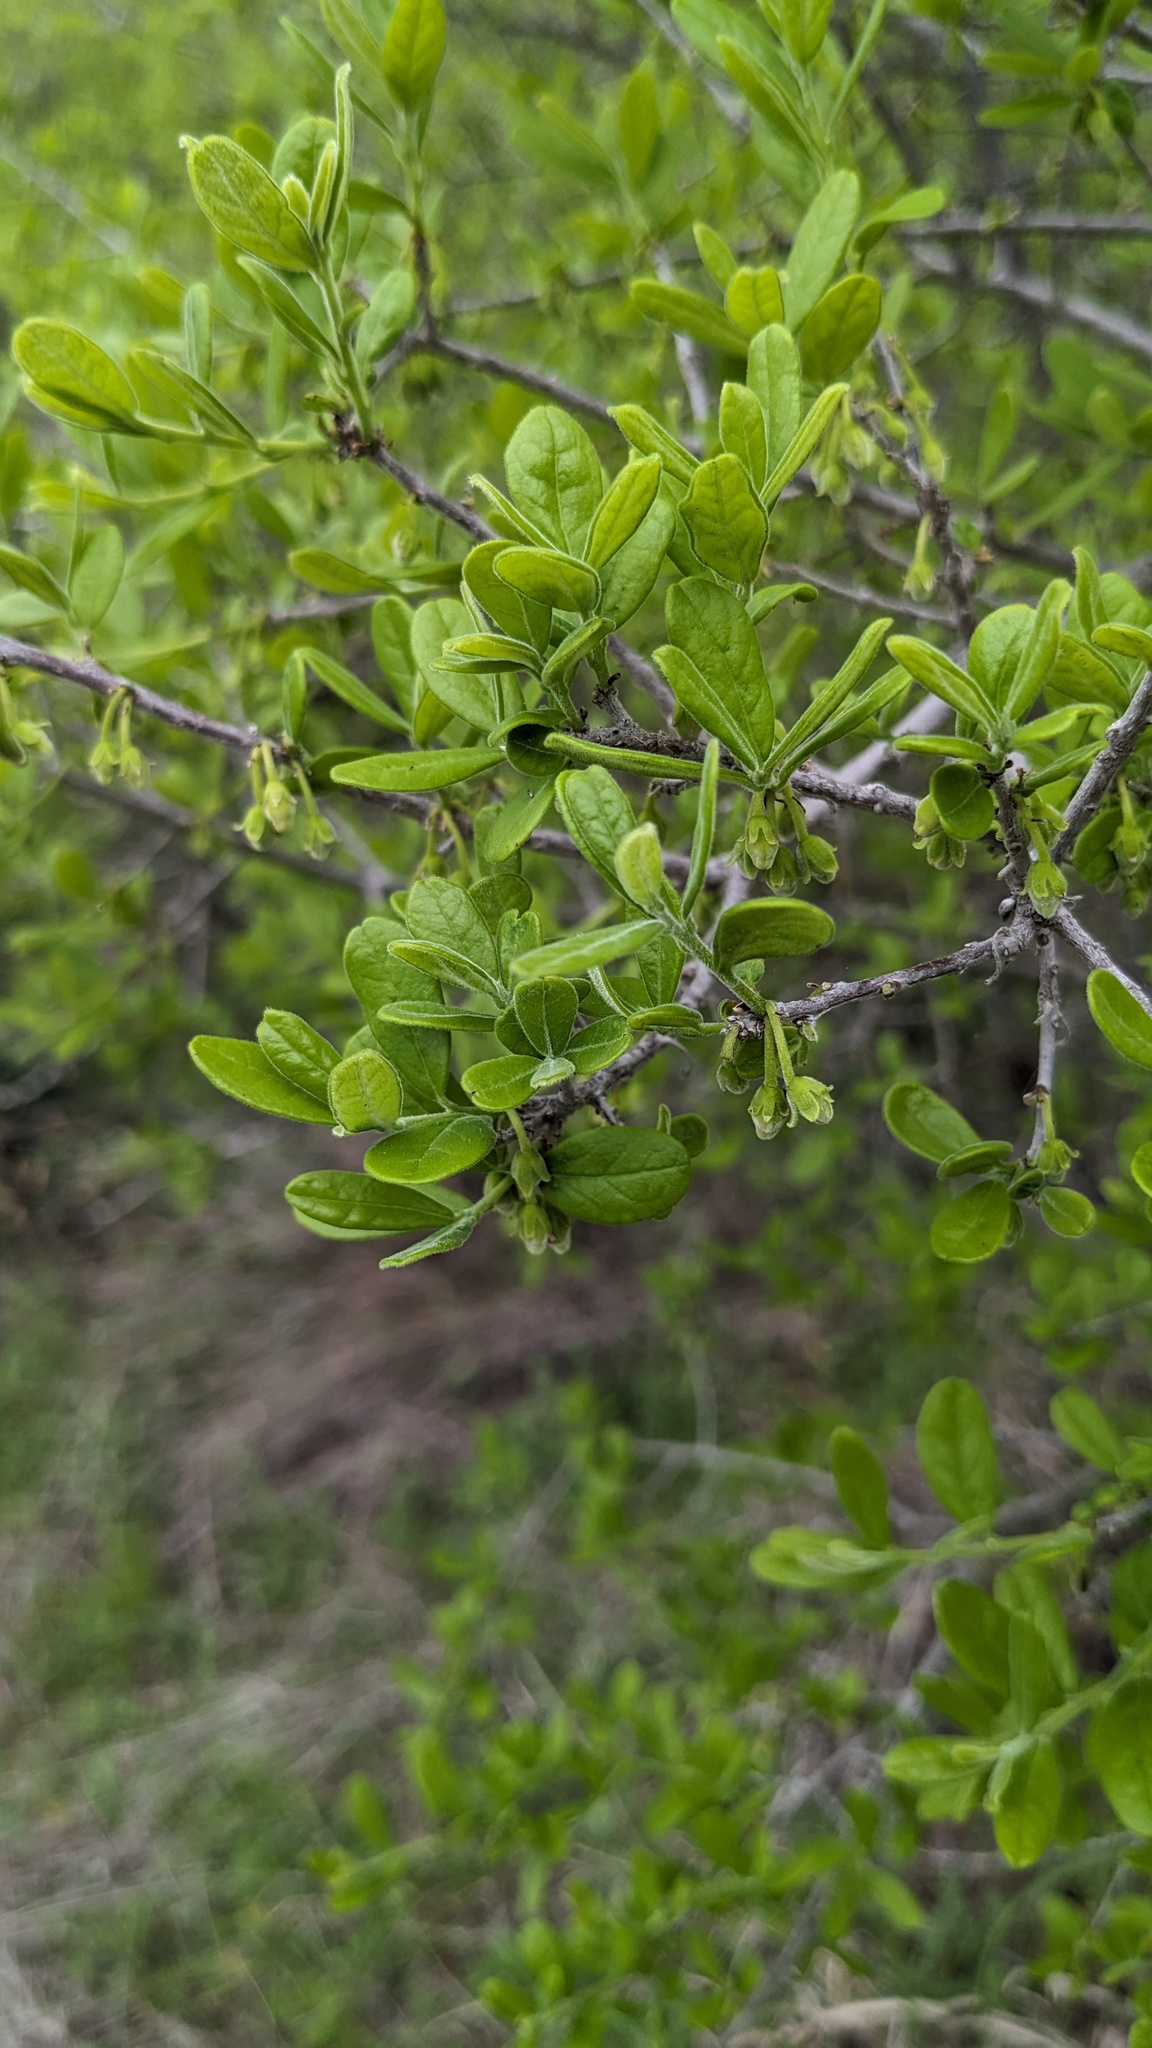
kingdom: Plantae
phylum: Tracheophyta
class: Magnoliopsida
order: Ericales
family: Ebenaceae
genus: Diospyros
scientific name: Diospyros texana
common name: Texas persimmon
